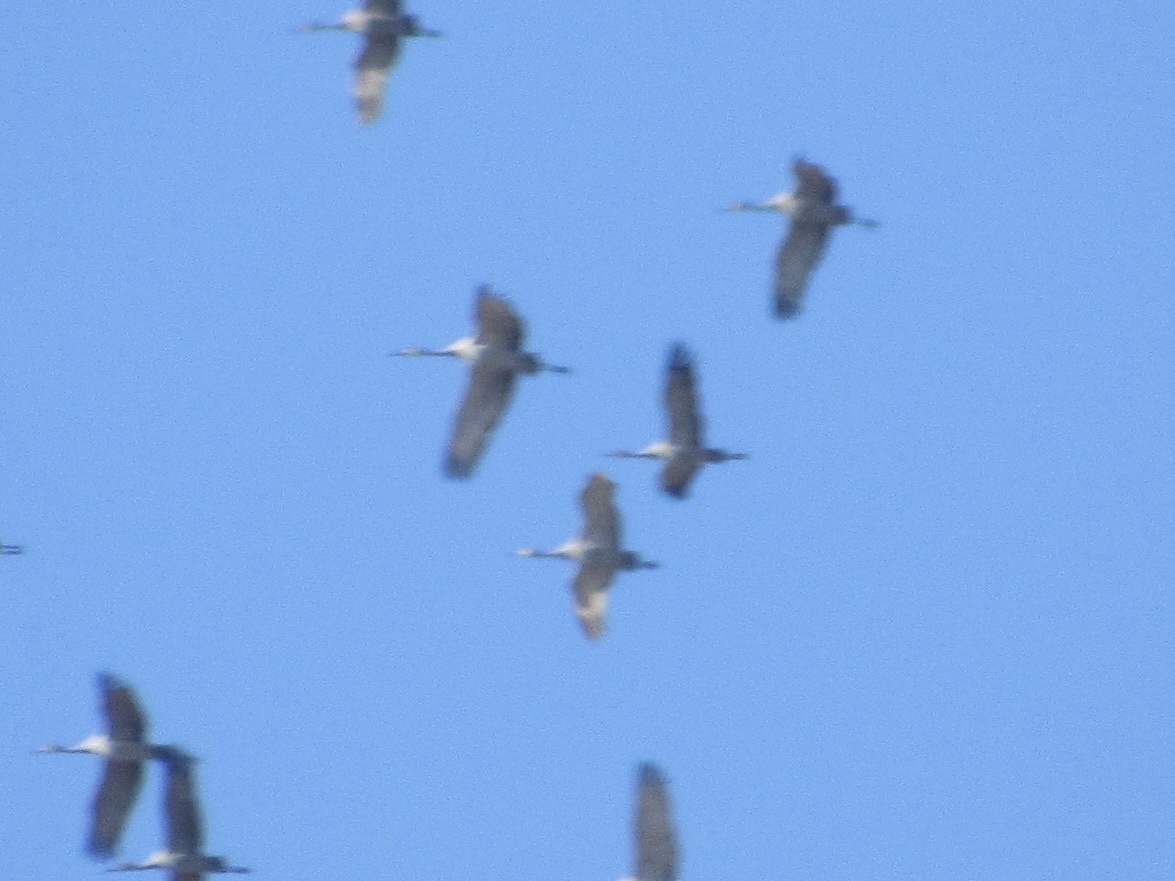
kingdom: Animalia
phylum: Chordata
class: Aves
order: Gruiformes
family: Gruidae
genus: Grus
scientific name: Grus canadensis
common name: Sandhill crane
